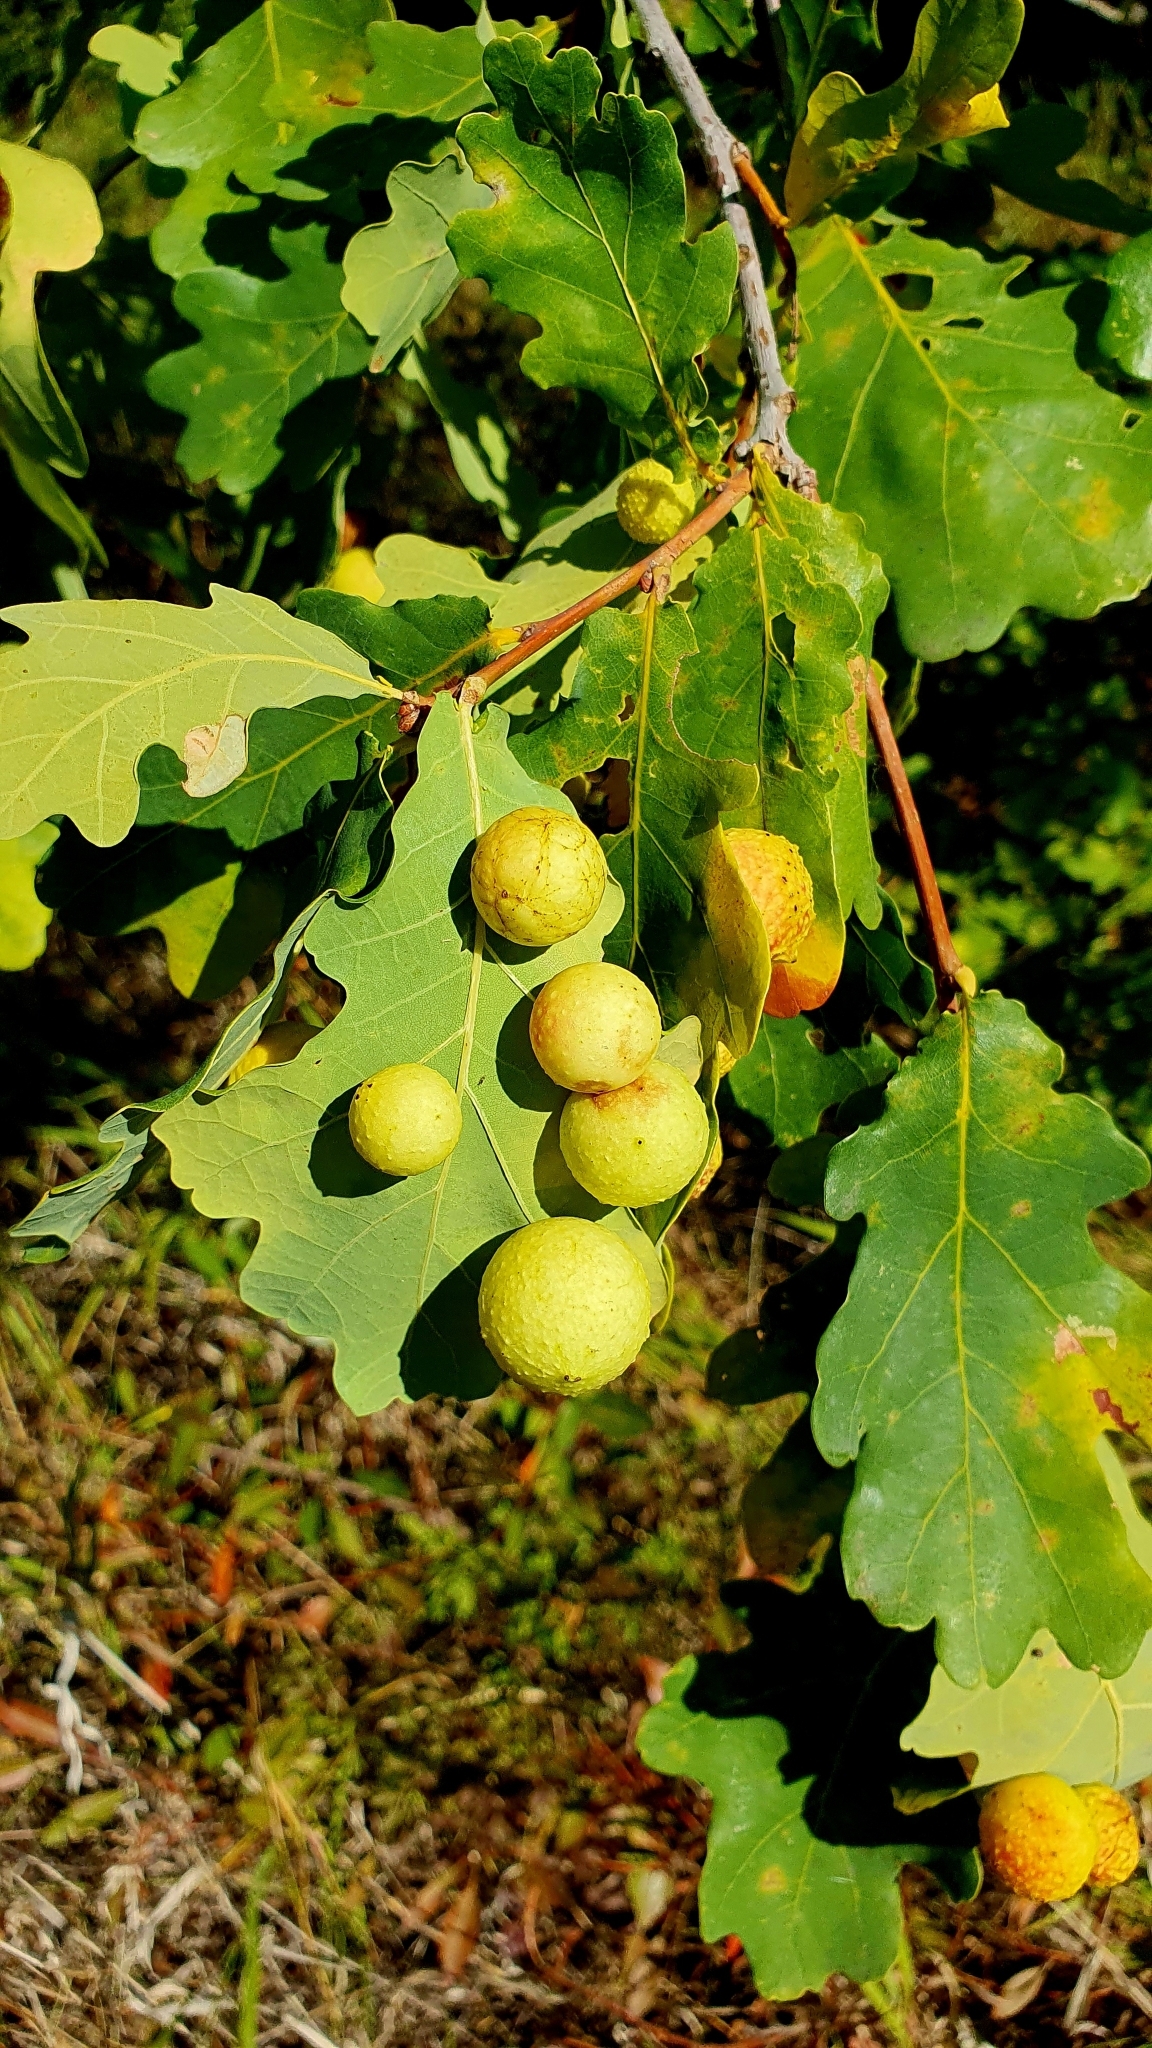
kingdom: Animalia
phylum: Arthropoda
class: Insecta
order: Hymenoptera
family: Cynipidae
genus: Cynips
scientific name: Cynips quercusfolii
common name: Cherry gall
